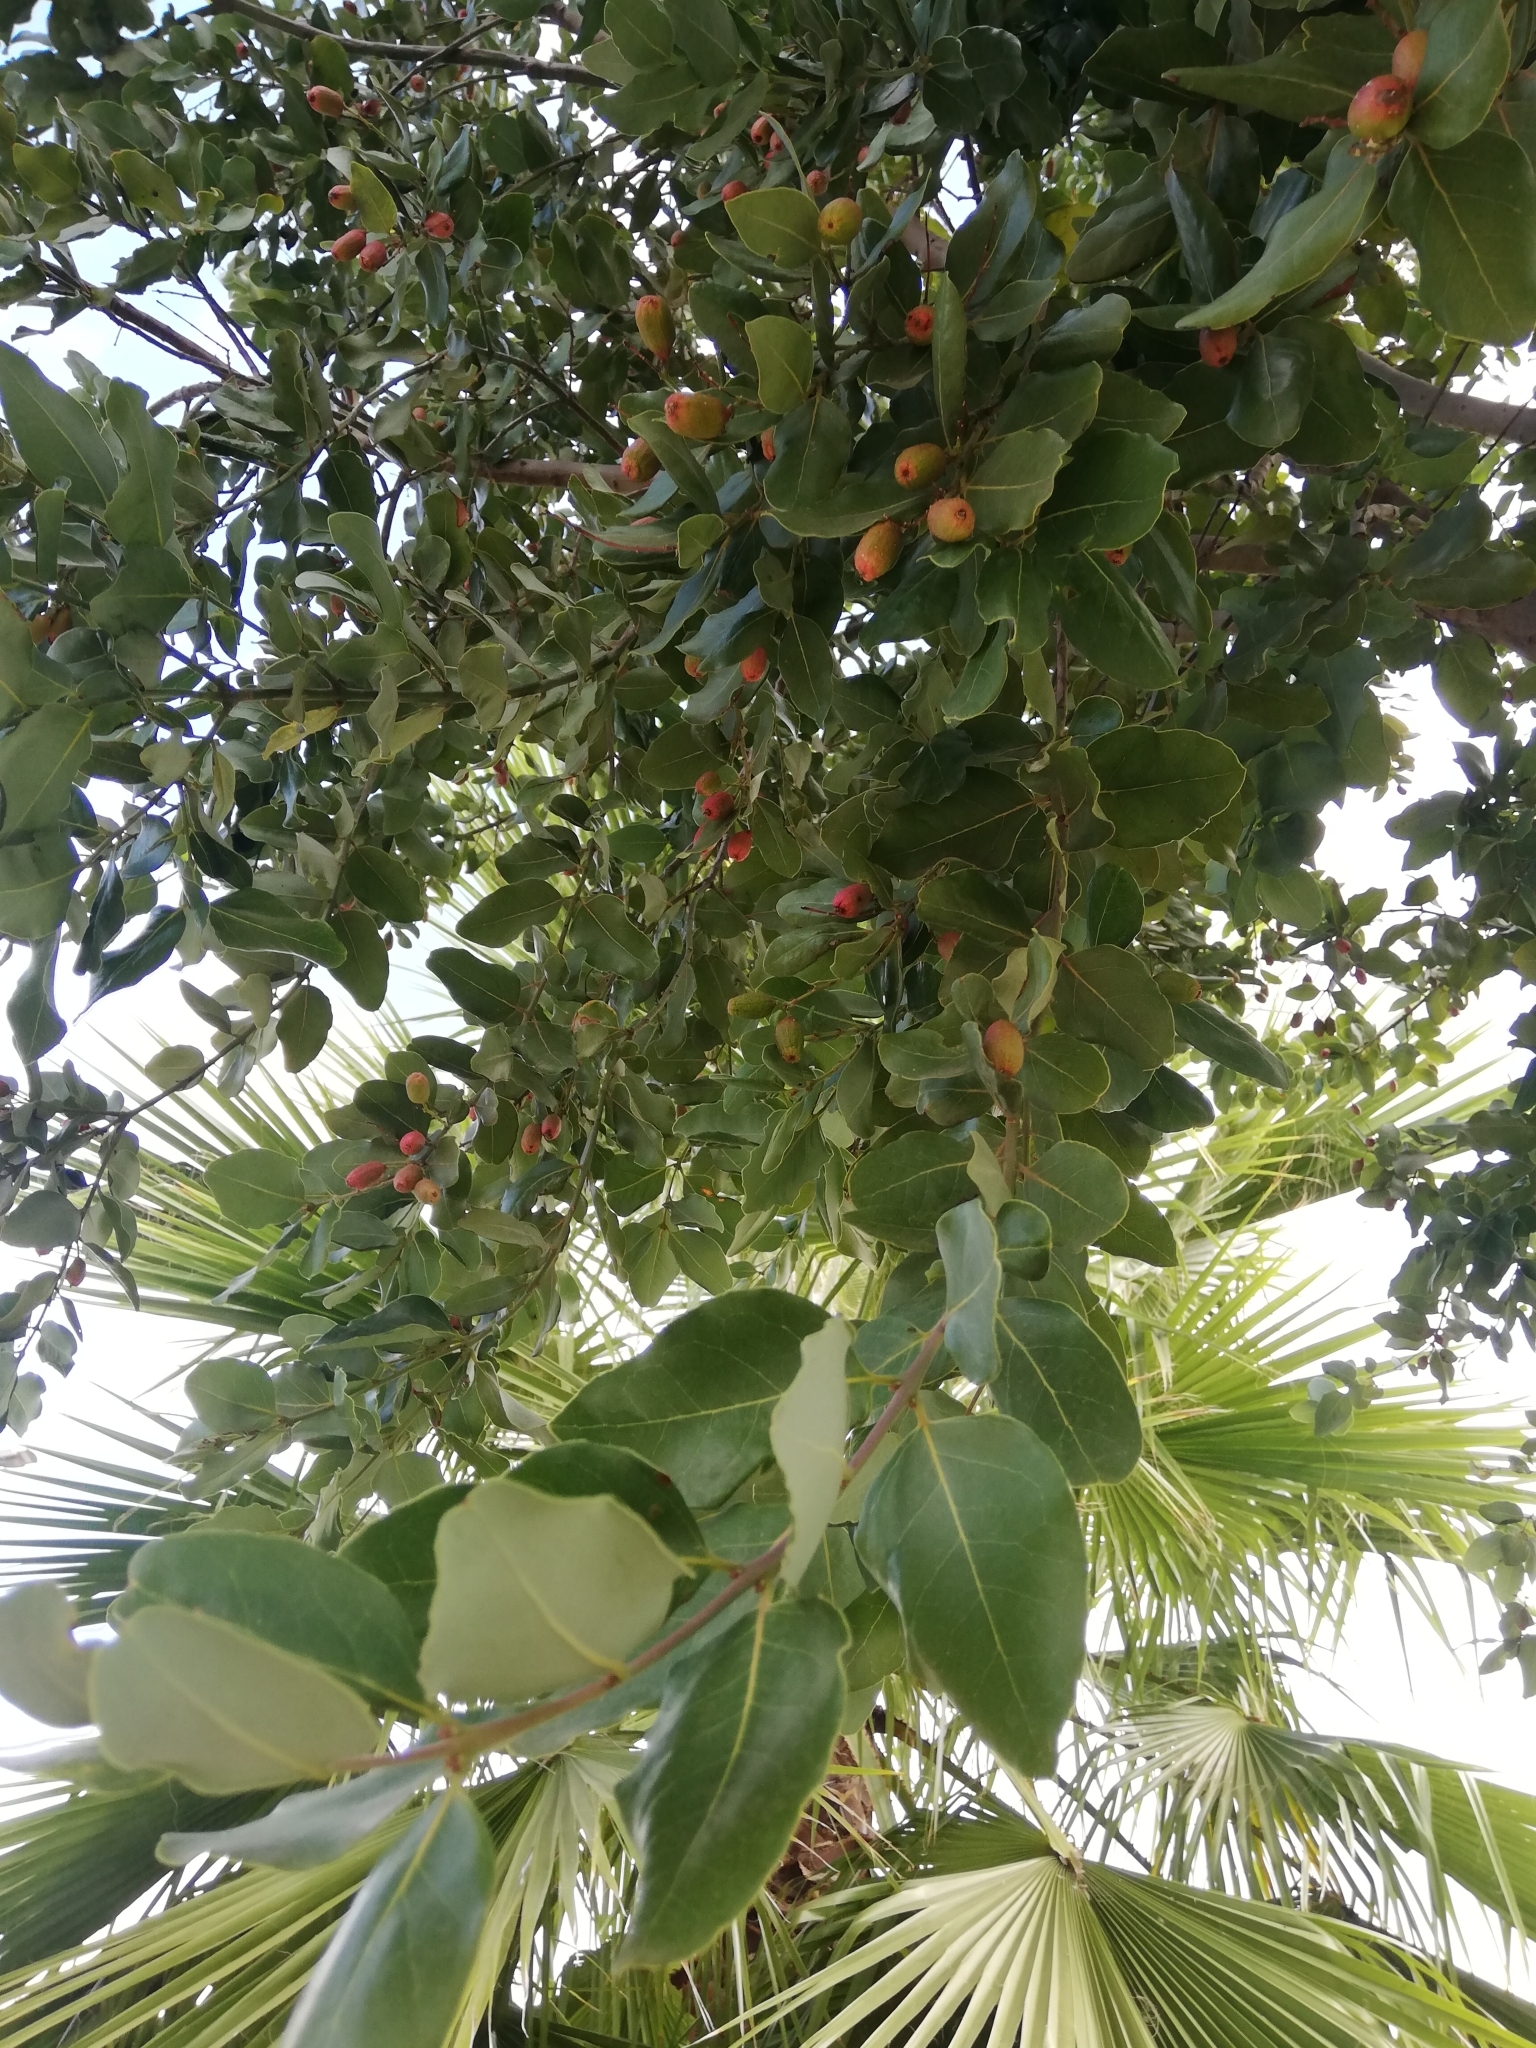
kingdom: Plantae
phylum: Tracheophyta
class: Magnoliopsida
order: Laurales
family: Lauraceae
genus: Cryptocarya
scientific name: Cryptocarya alba
